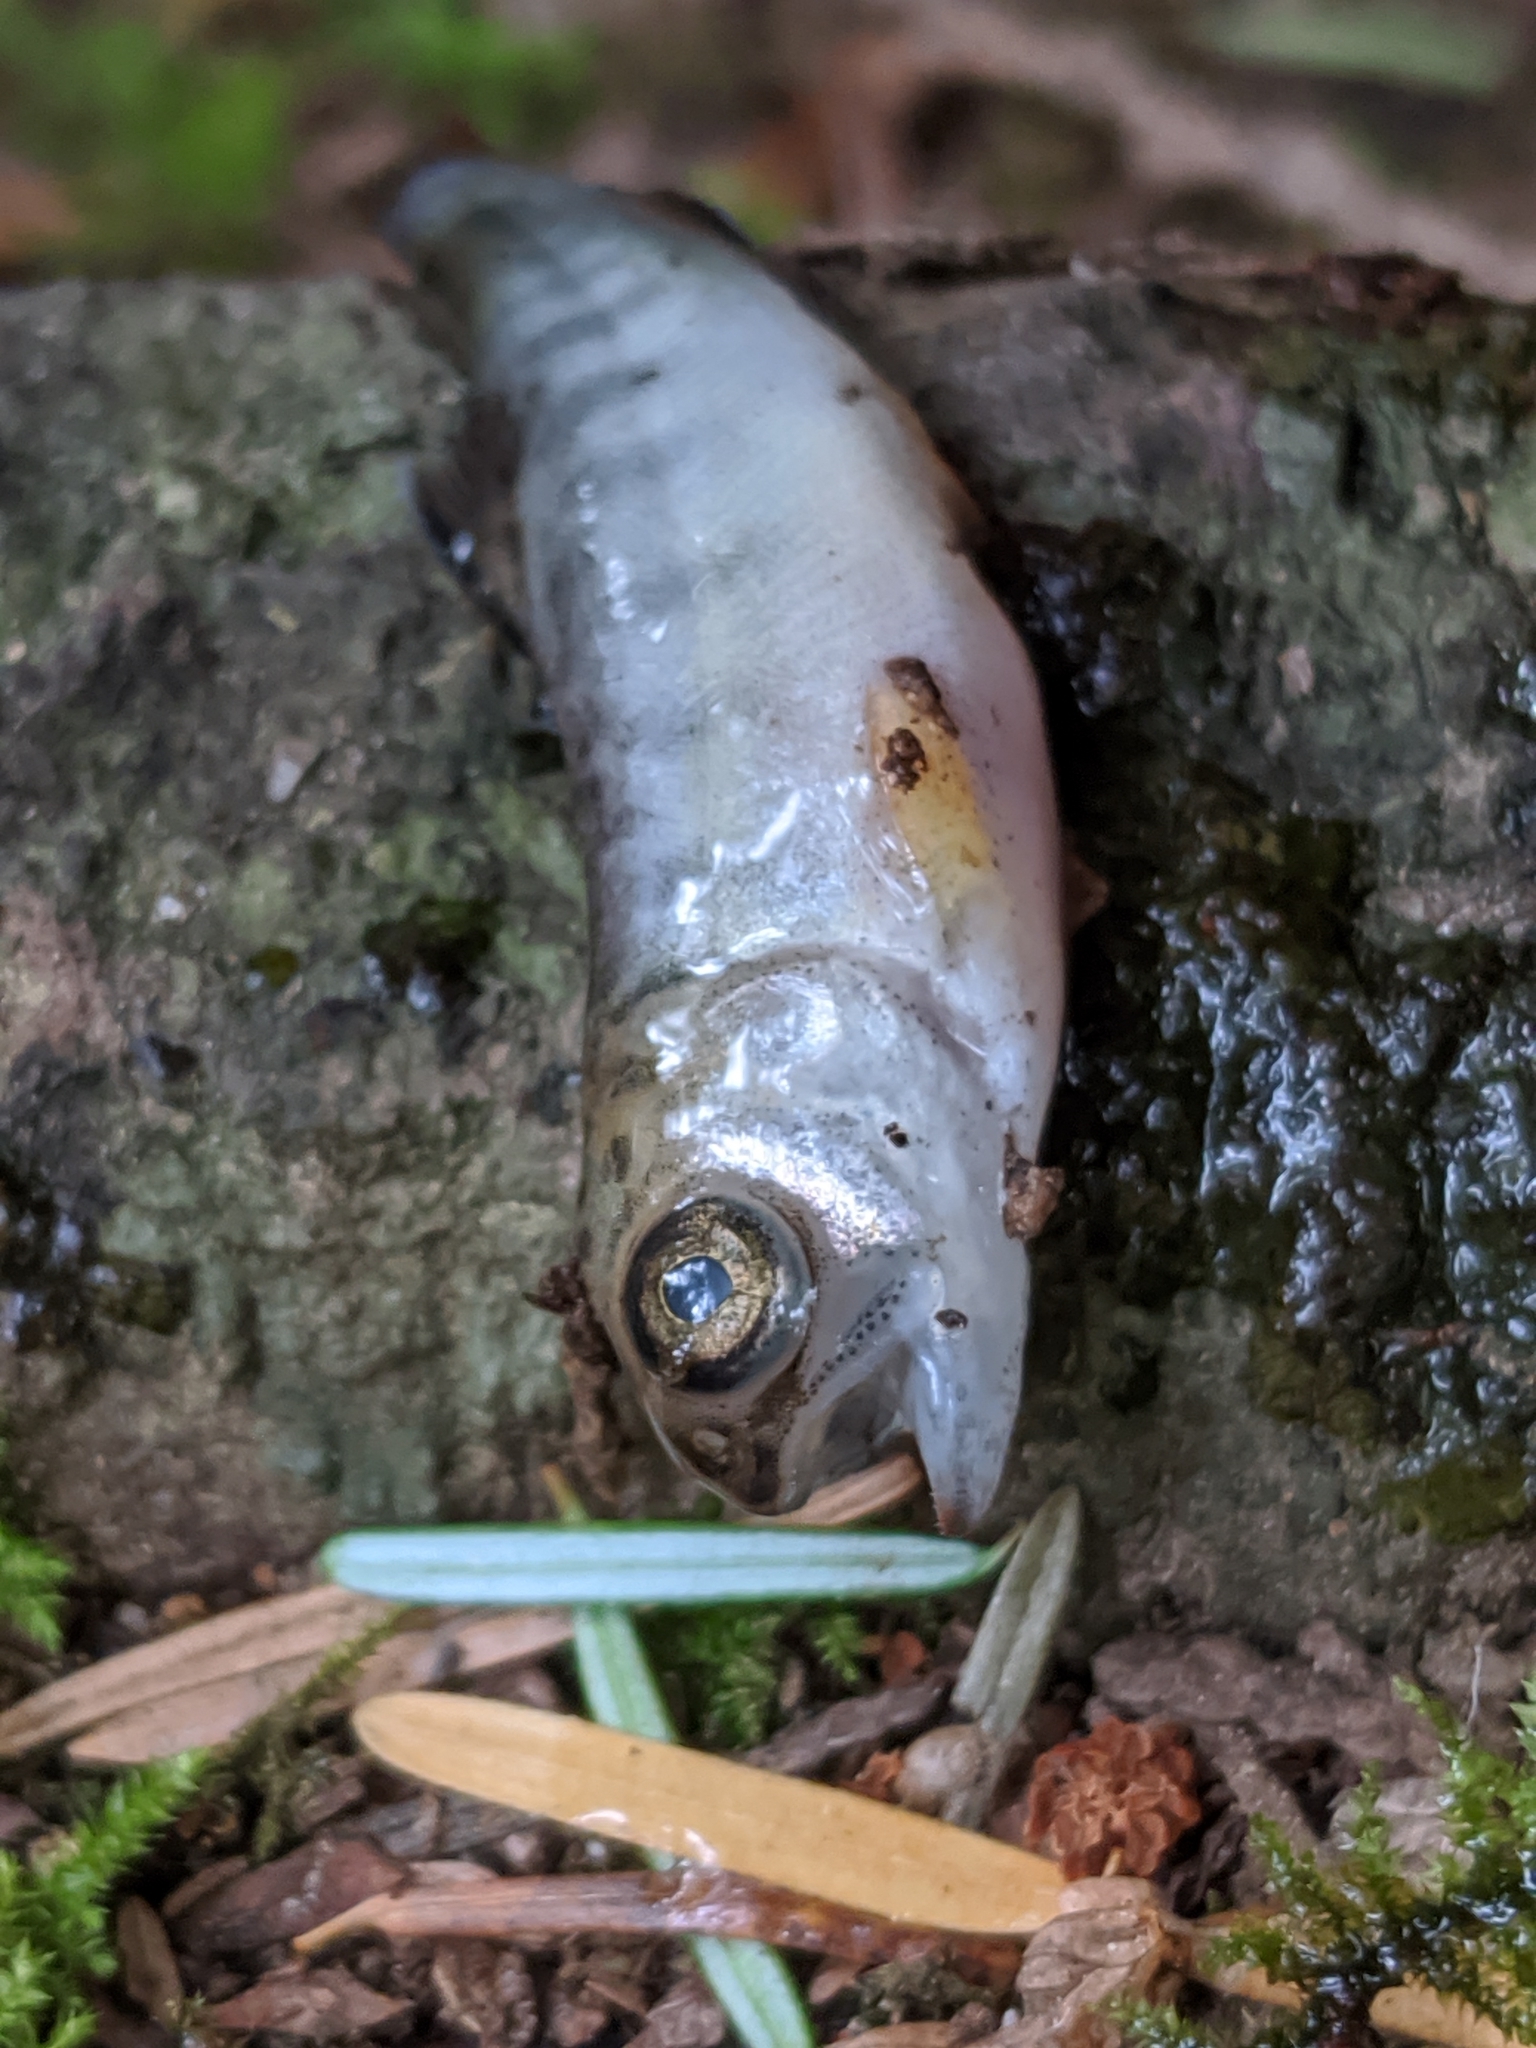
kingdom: Animalia
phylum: Chordata
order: Salmoniformes
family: Salmonidae
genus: Oncorhynchus
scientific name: Oncorhynchus kisutch
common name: Coho salmon
